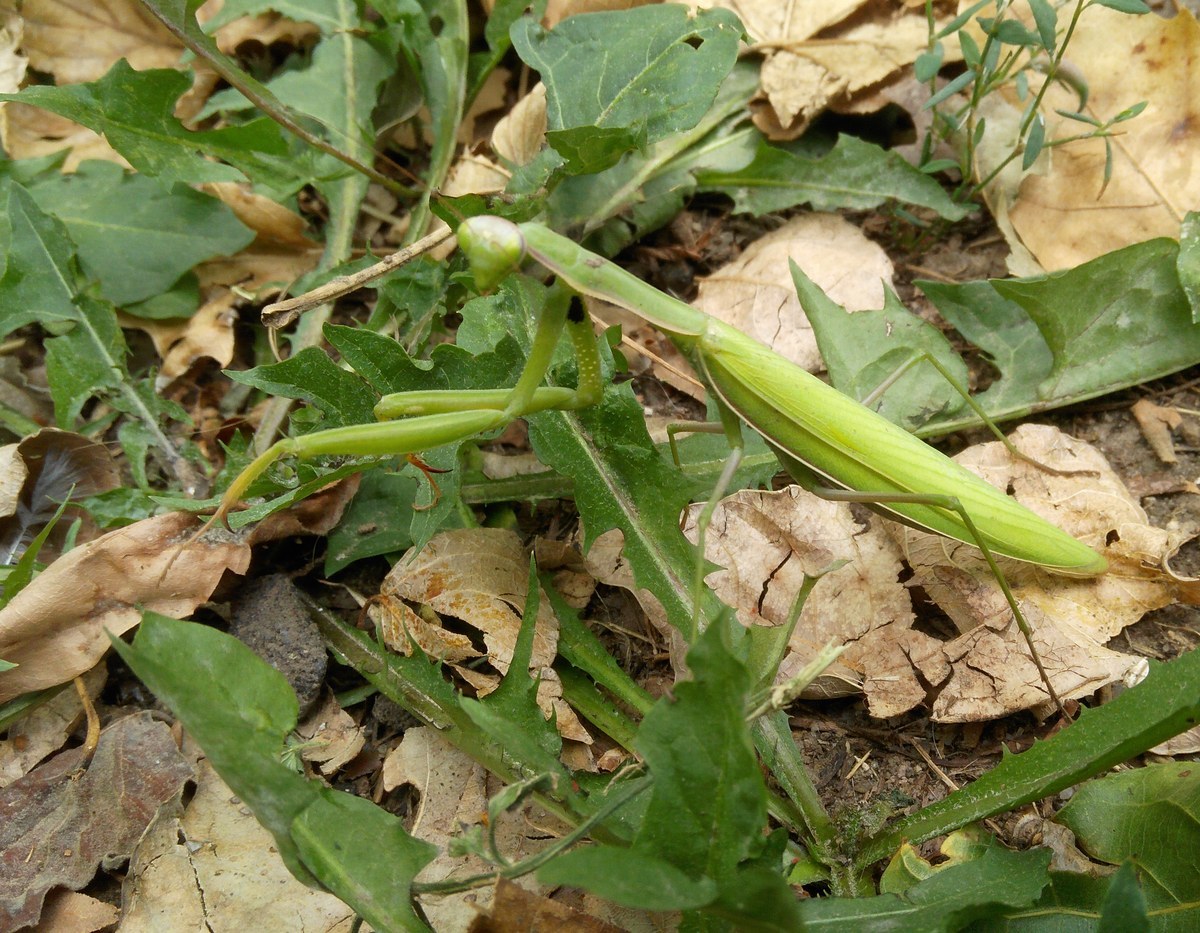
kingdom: Animalia
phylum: Arthropoda
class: Insecta
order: Mantodea
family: Mantidae
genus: Mantis
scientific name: Mantis religiosa
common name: Praying mantis
